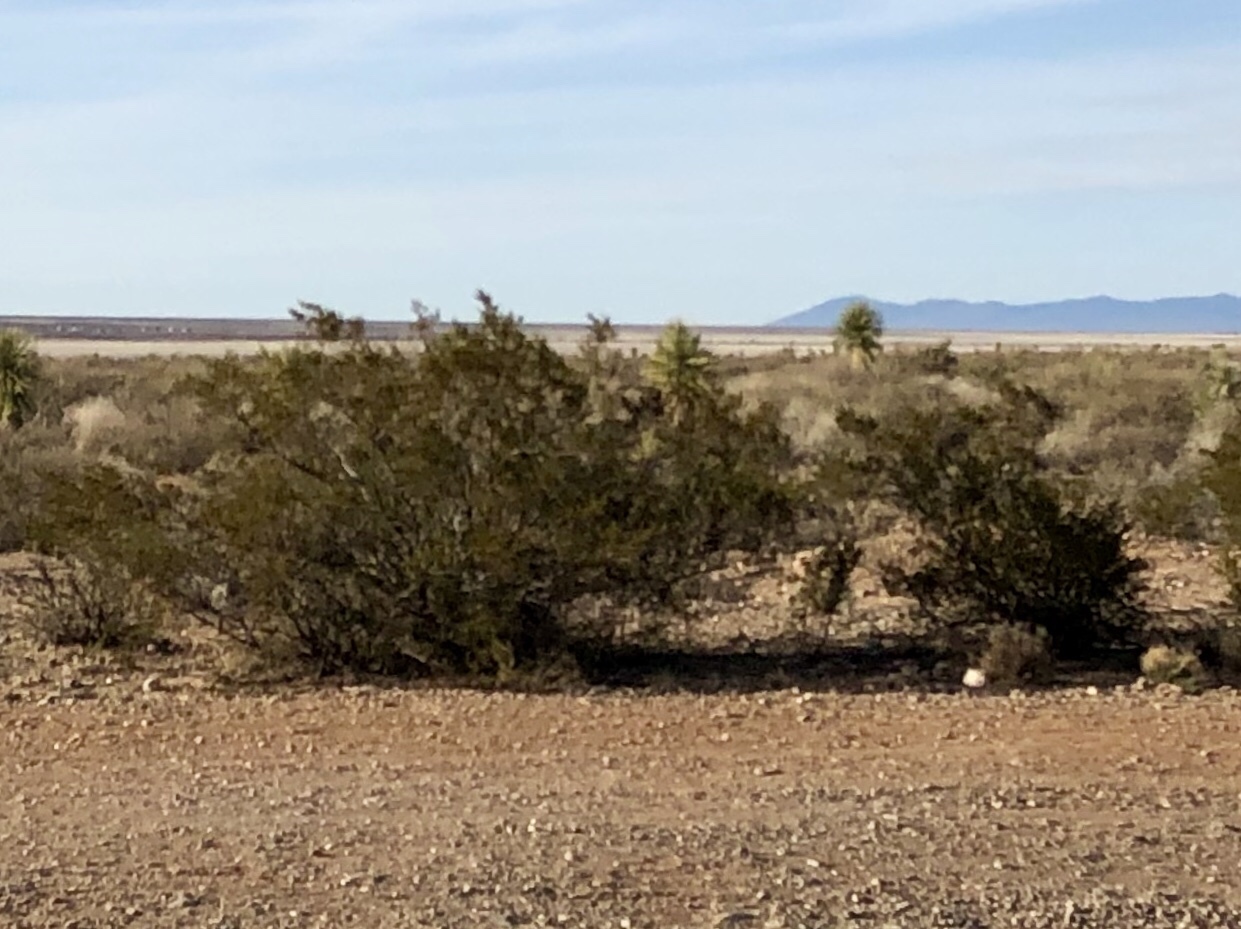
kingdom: Plantae
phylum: Tracheophyta
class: Magnoliopsida
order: Zygophyllales
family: Zygophyllaceae
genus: Larrea
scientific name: Larrea tridentata
